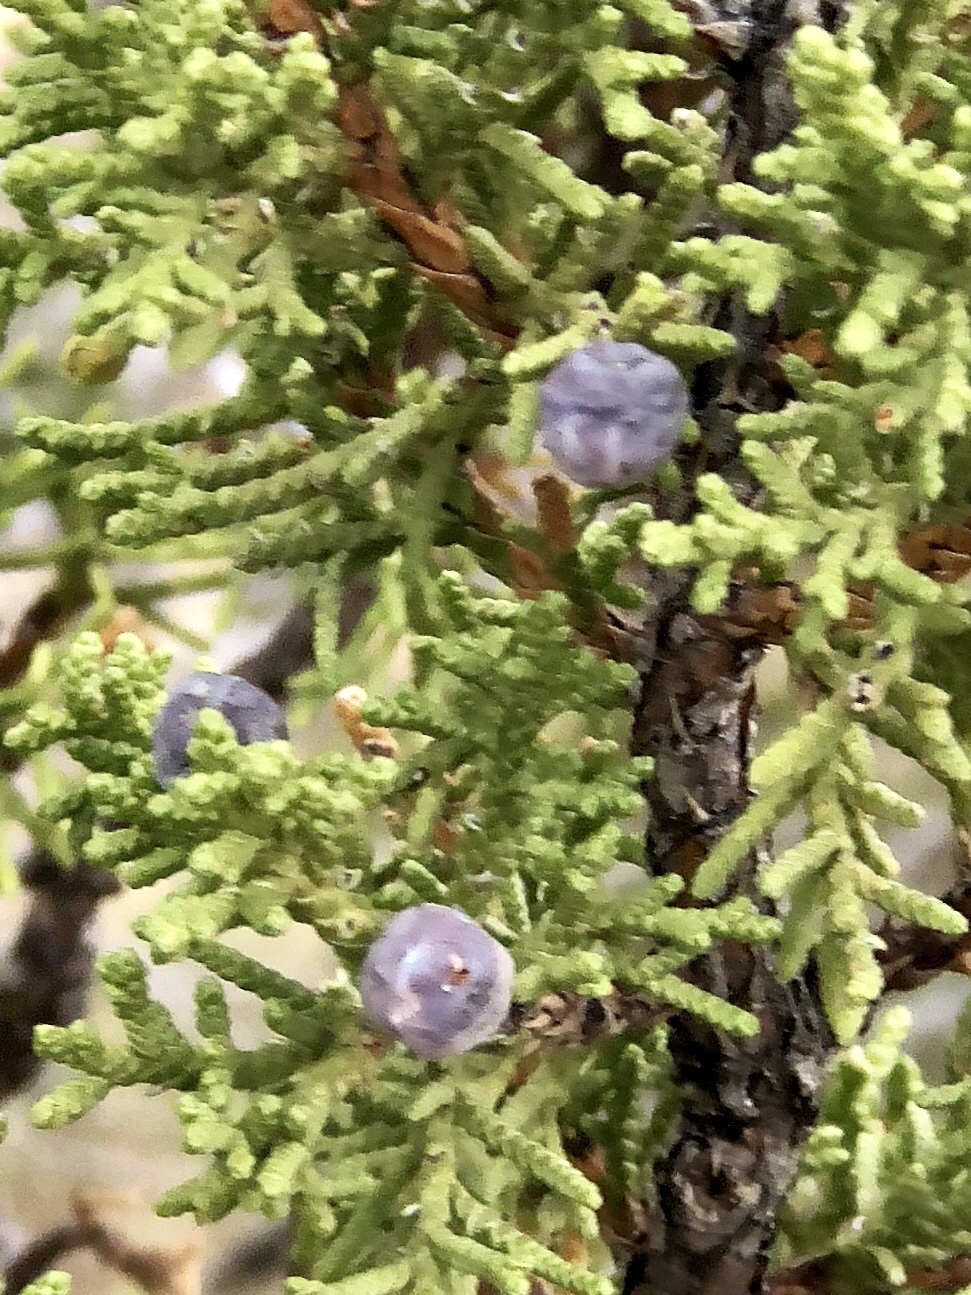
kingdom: Plantae
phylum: Tracheophyta
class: Pinopsida
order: Pinales
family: Cupressaceae
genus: Juniperus
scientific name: Juniperus monosperma
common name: One-seed juniper
